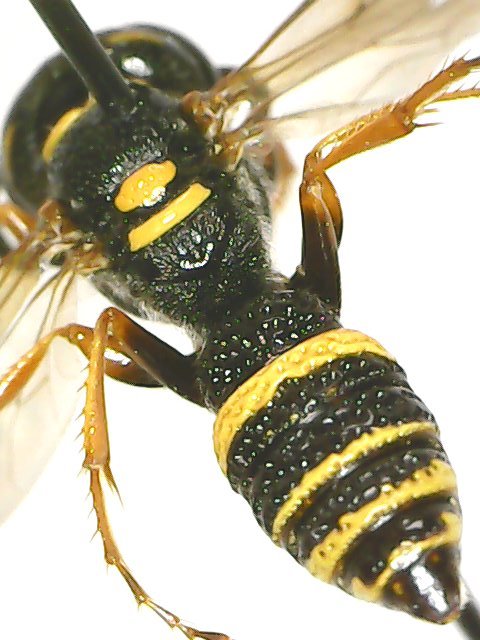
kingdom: Animalia
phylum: Arthropoda
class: Insecta
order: Hymenoptera
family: Crabronidae
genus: Philanthus
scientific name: Philanthus gibbosus
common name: Humped beewolf
